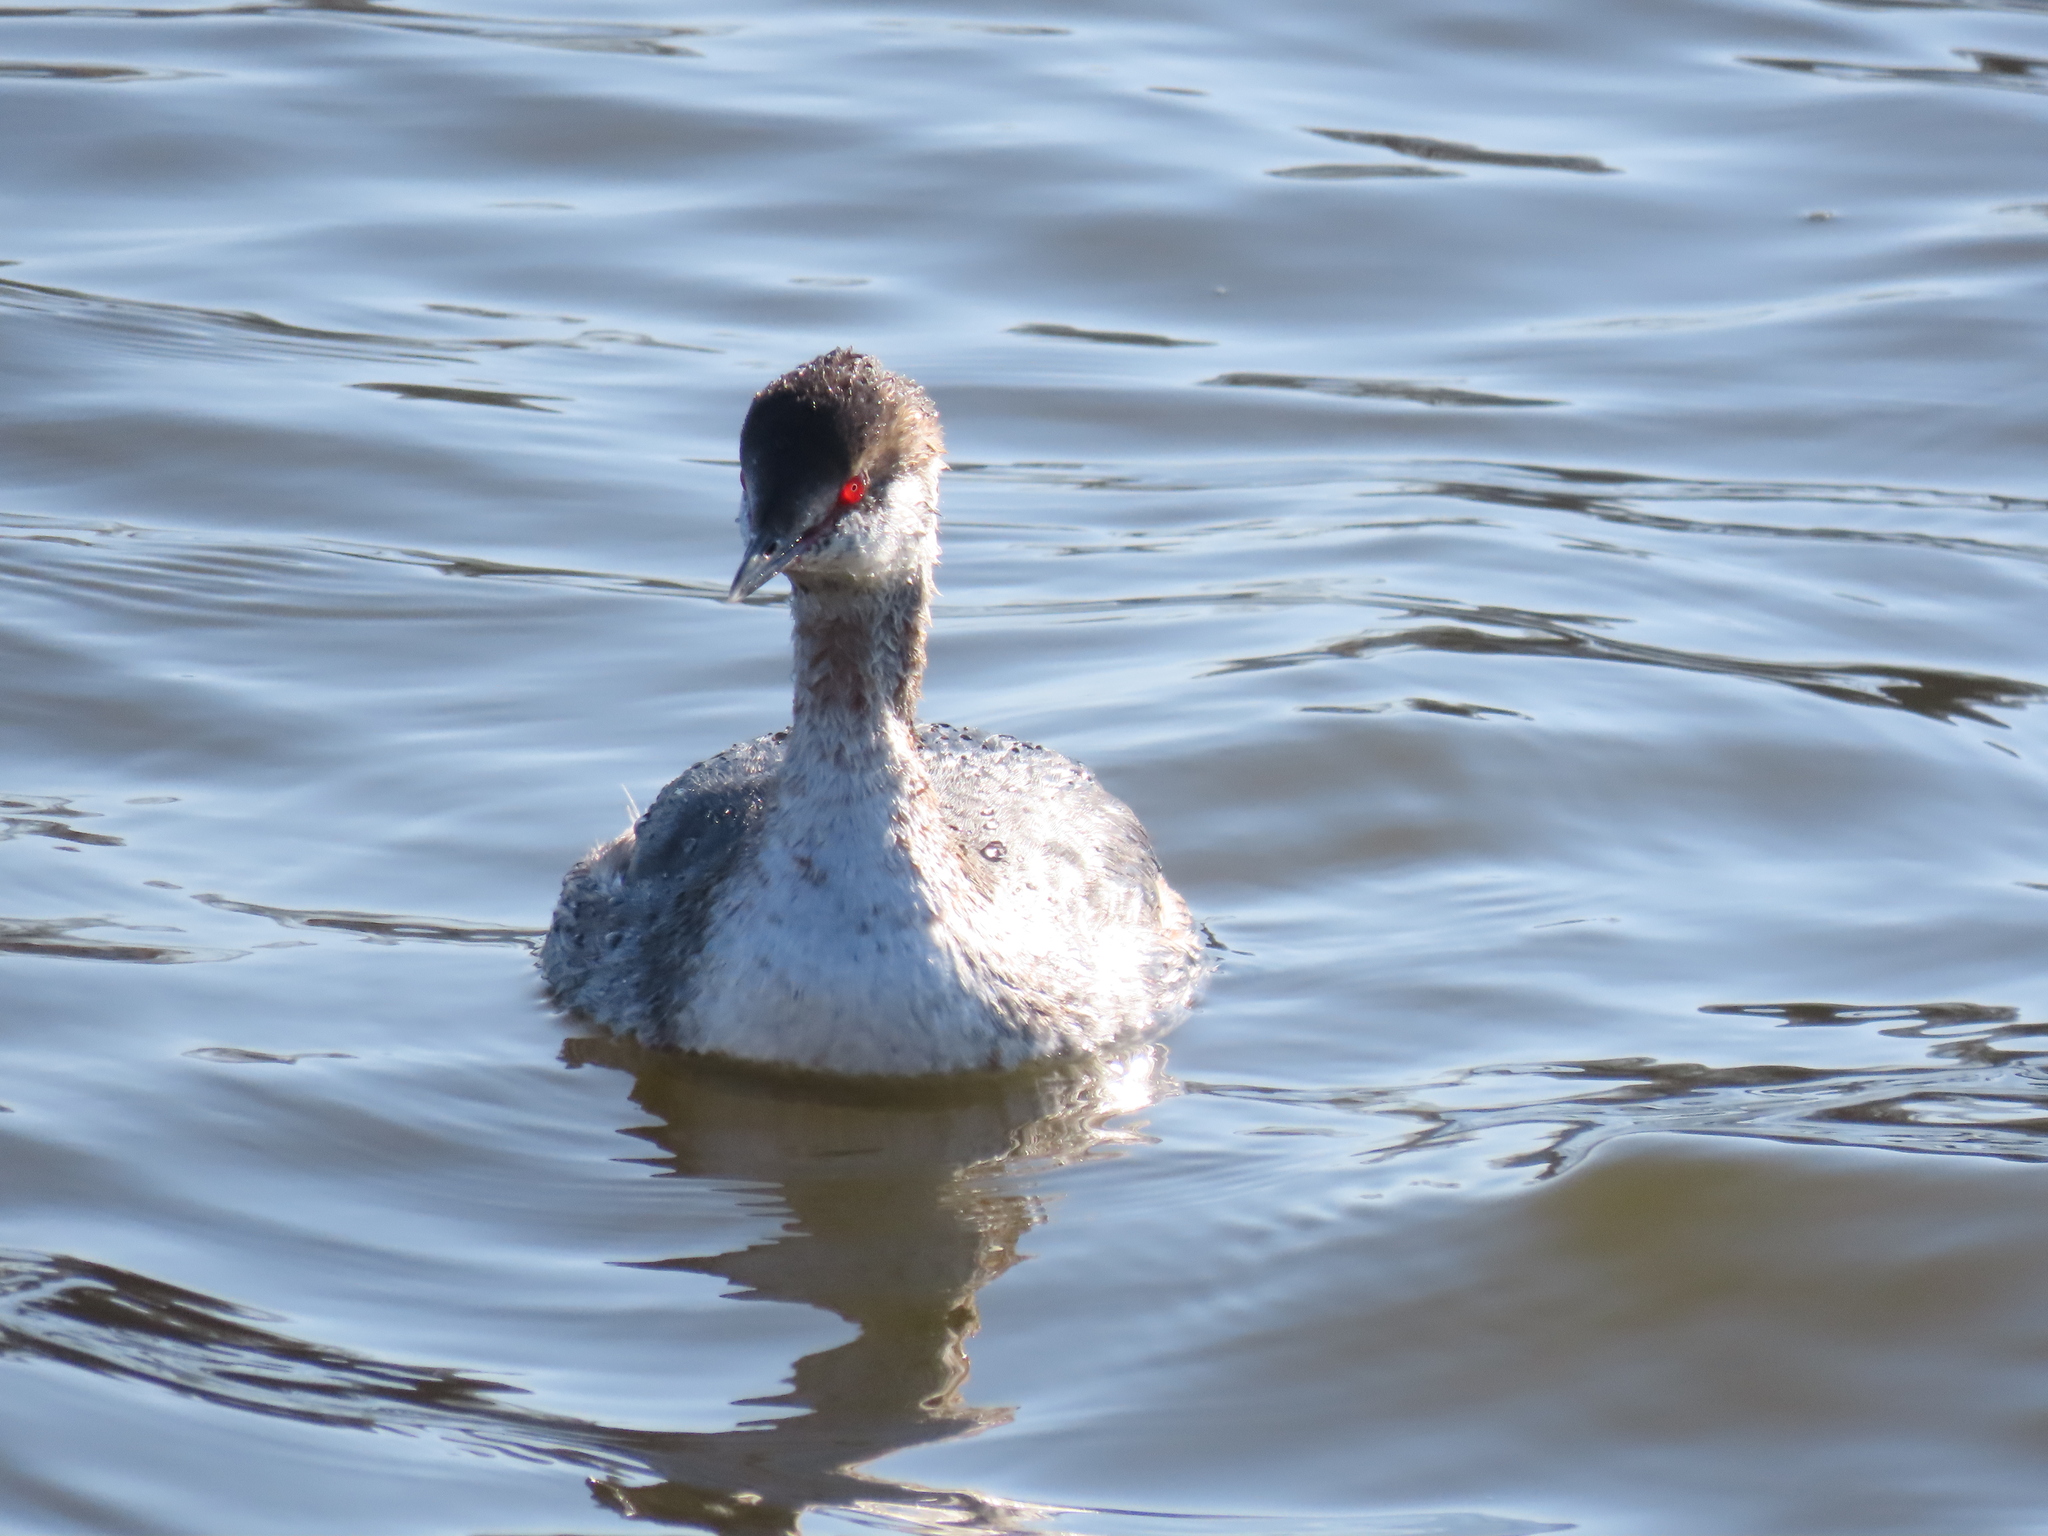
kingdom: Animalia
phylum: Chordata
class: Aves
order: Podicipediformes
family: Podicipedidae
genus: Podiceps
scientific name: Podiceps auritus
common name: Horned grebe
